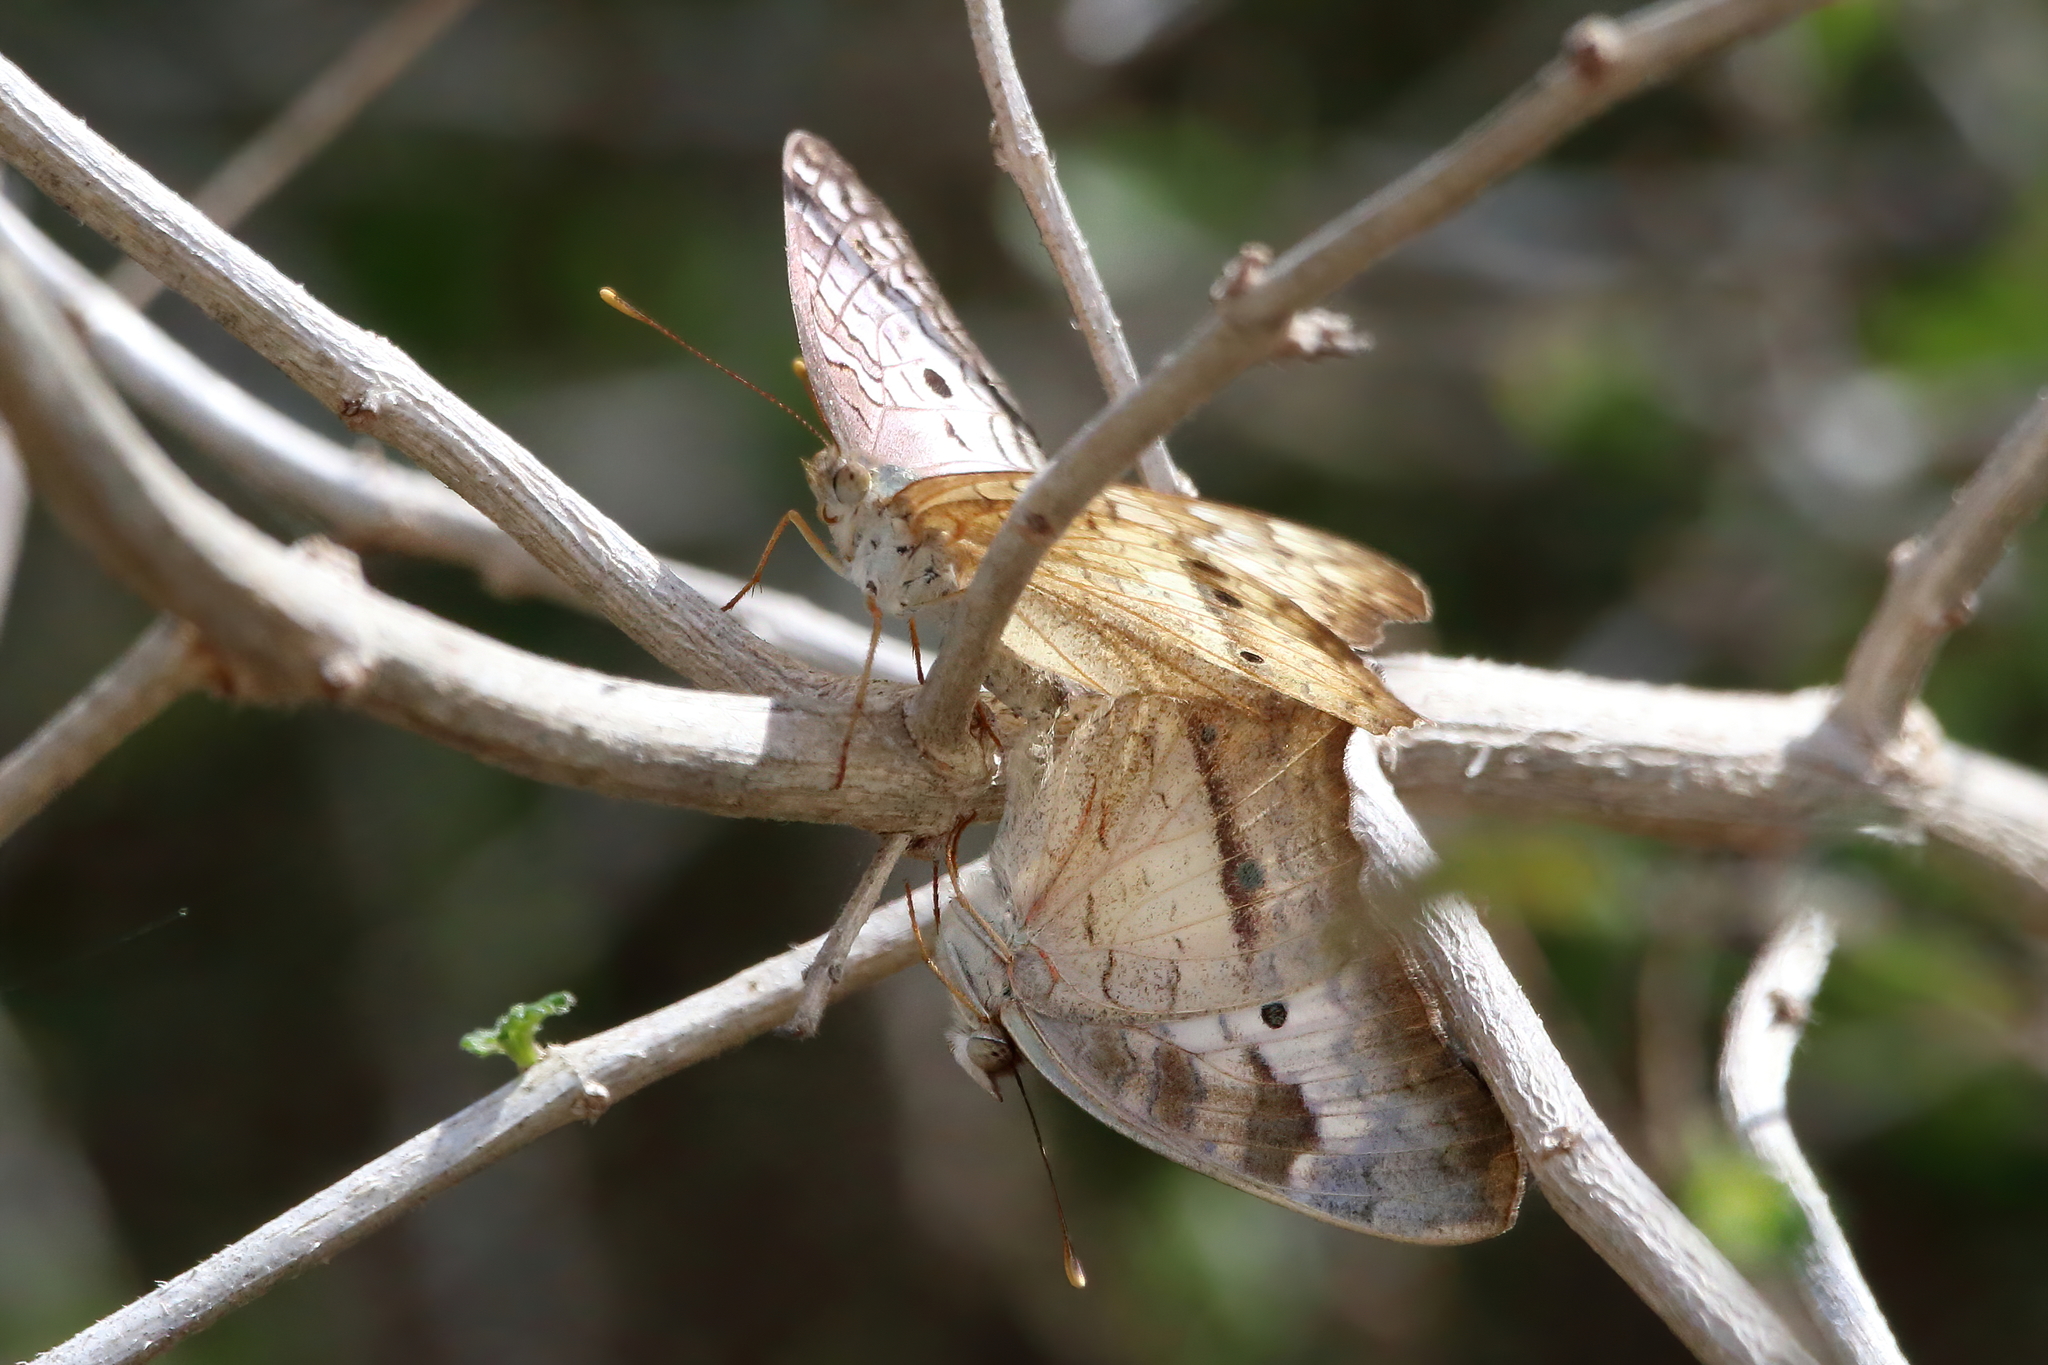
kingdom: Animalia
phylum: Arthropoda
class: Insecta
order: Lepidoptera
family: Nymphalidae
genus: Anartia
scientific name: Anartia jatrophae
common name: White peacock
